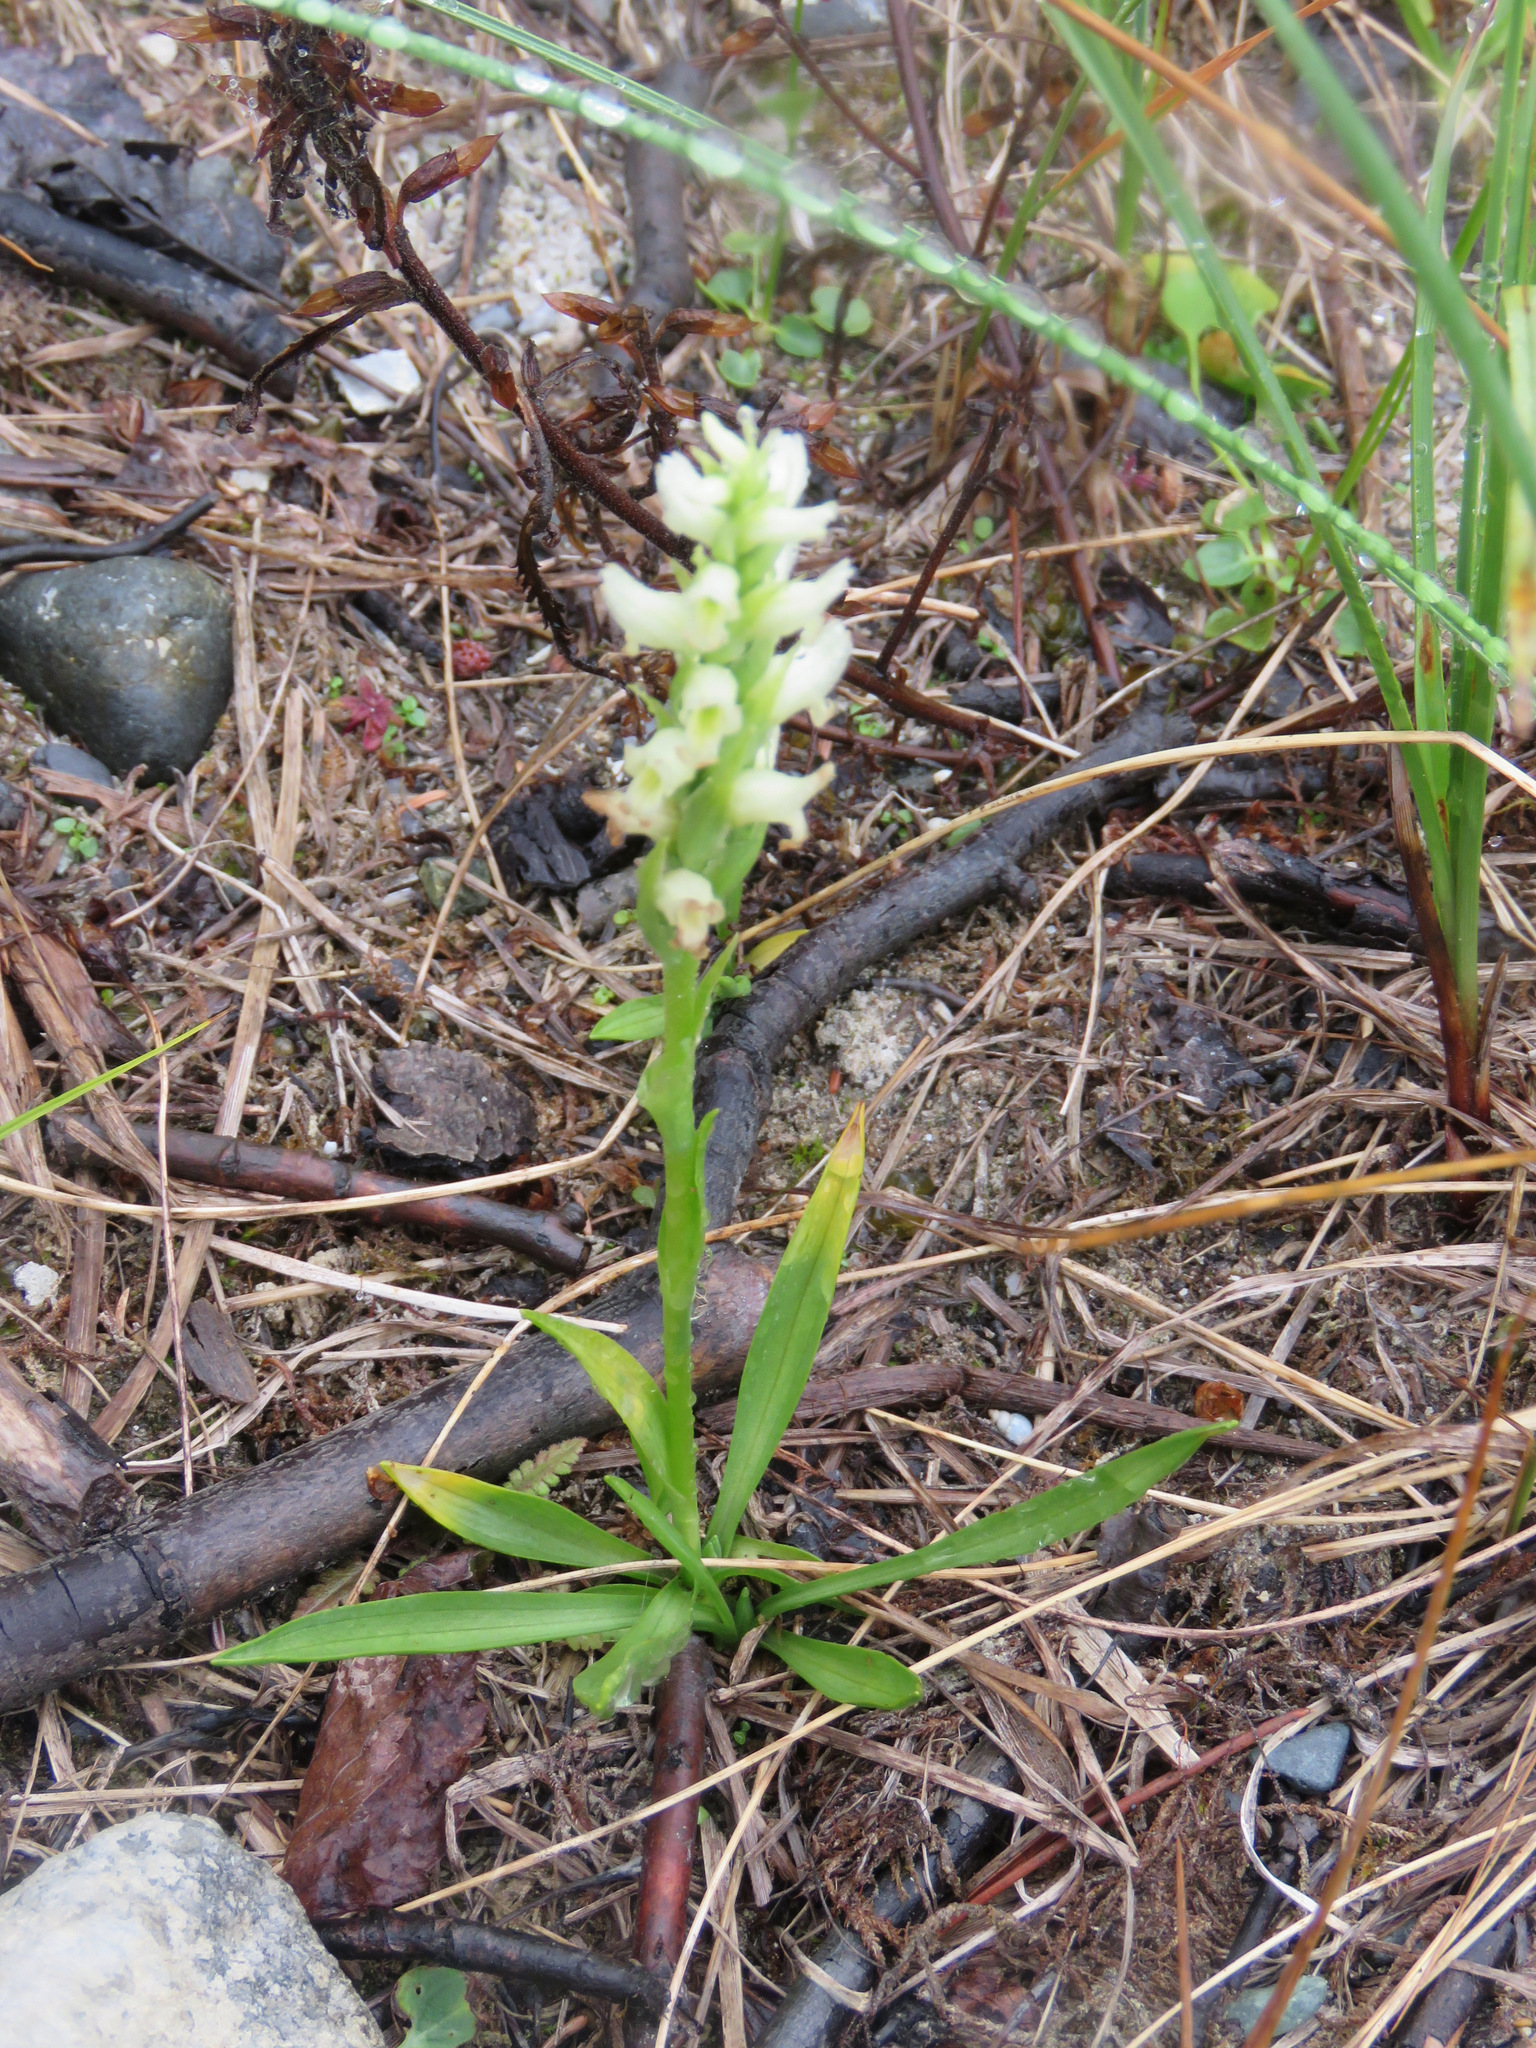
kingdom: Plantae
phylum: Tracheophyta
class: Liliopsida
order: Asparagales
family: Orchidaceae
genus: Spiranthes
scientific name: Spiranthes romanzoffiana
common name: Irish lady's-tresses
